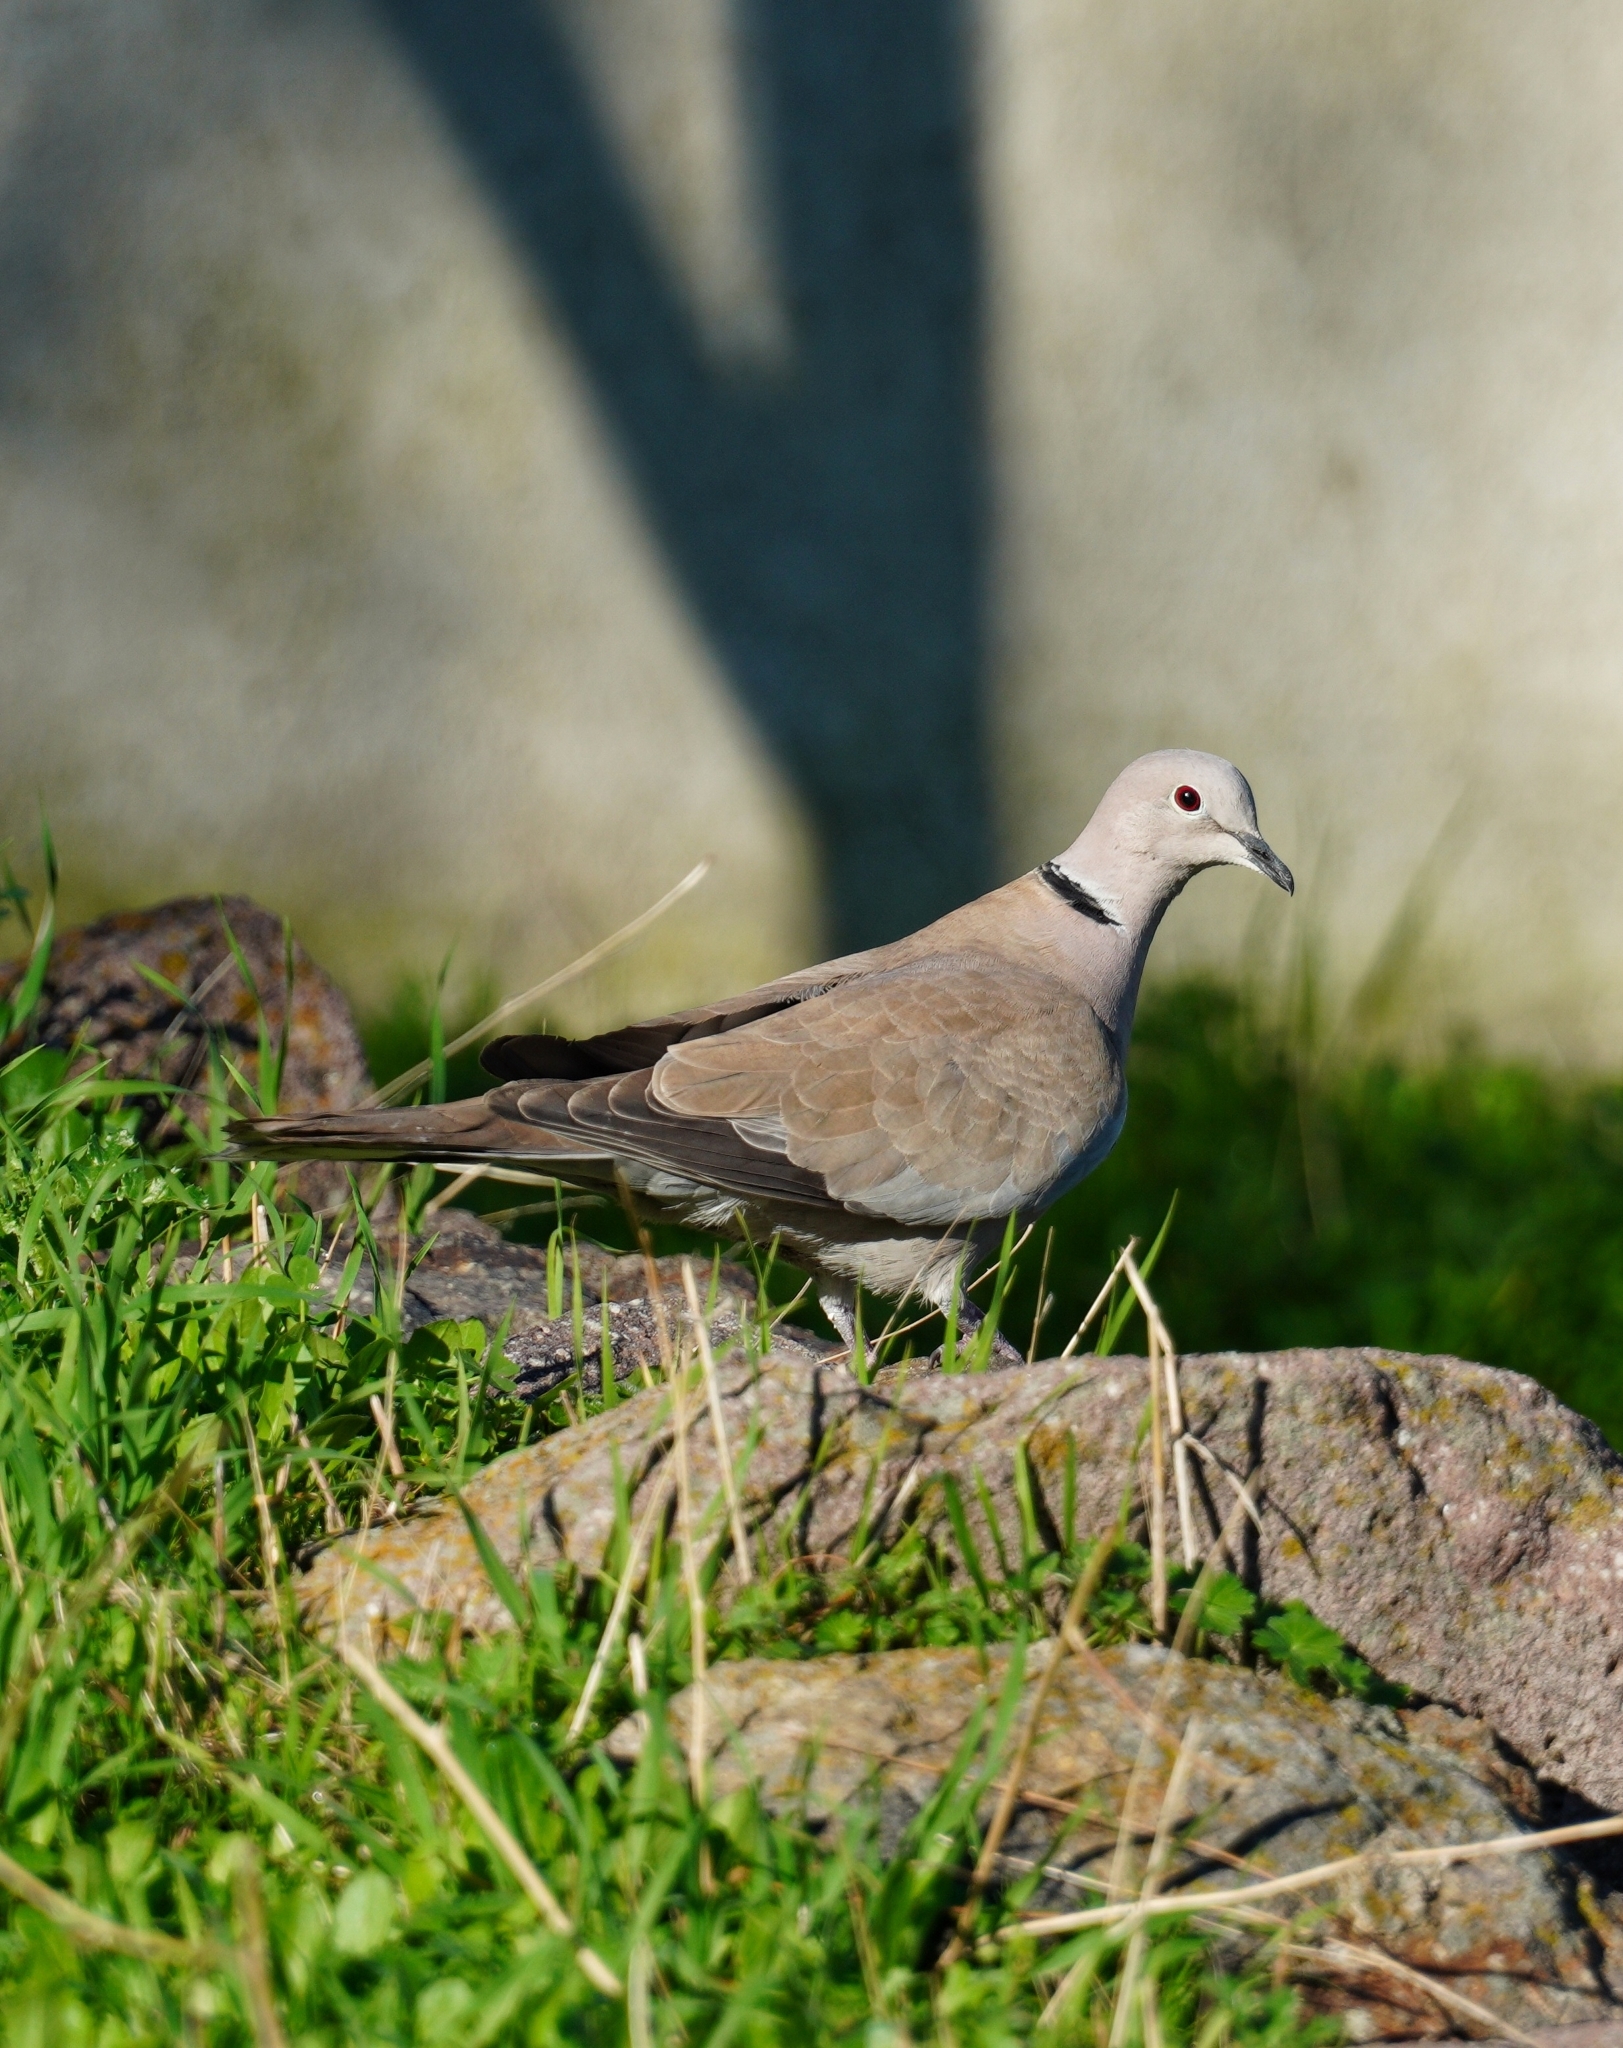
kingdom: Animalia
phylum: Chordata
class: Aves
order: Columbiformes
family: Columbidae
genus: Streptopelia
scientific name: Streptopelia decaocto
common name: Eurasian collared dove
